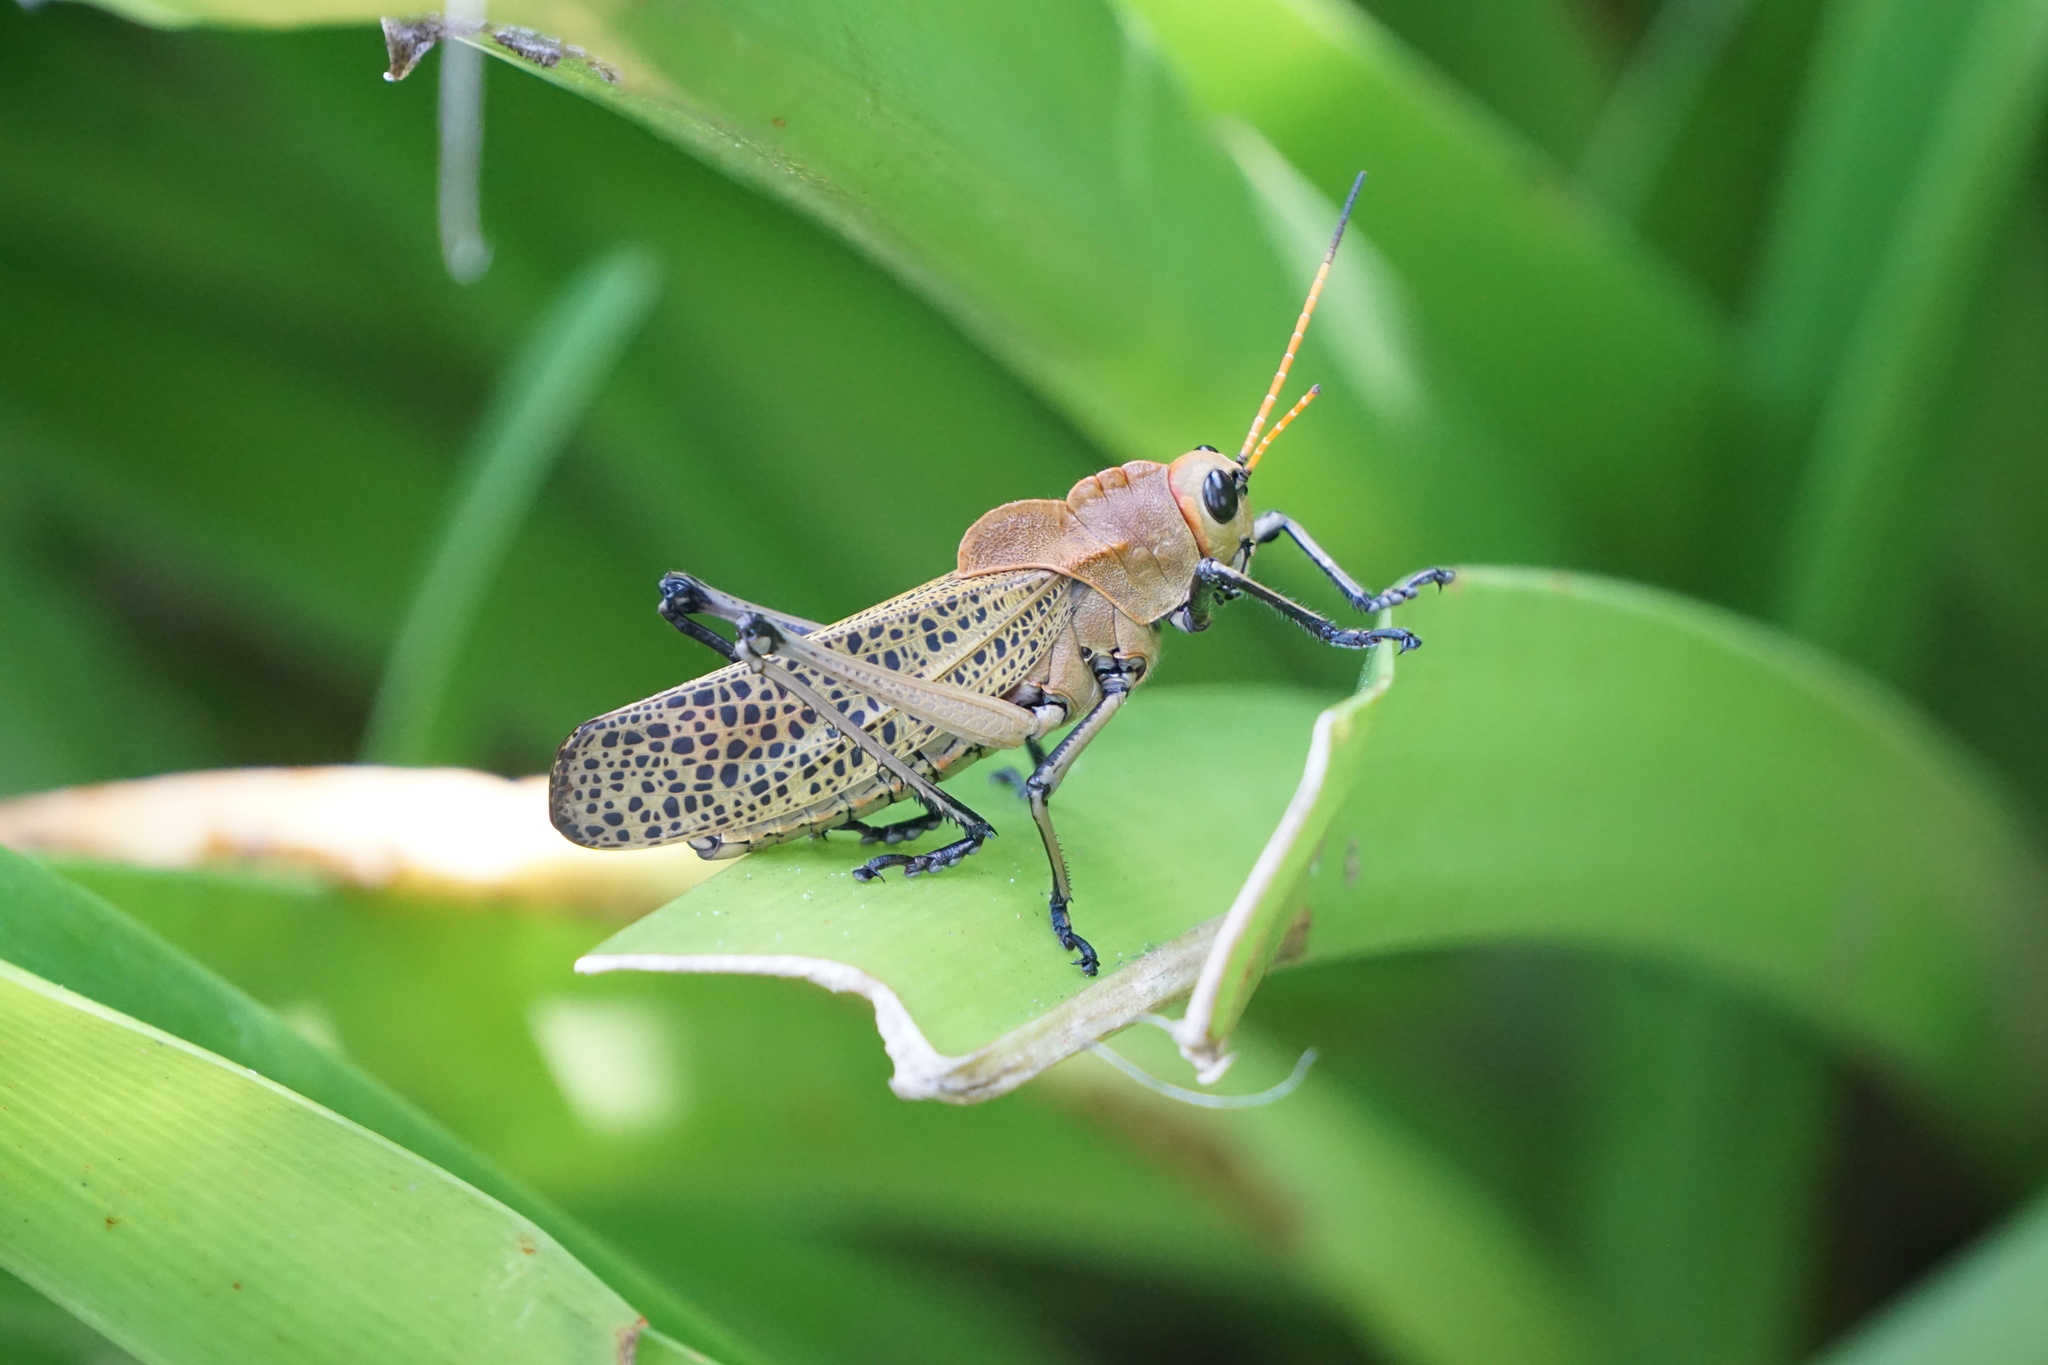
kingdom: Animalia
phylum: Arthropoda
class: Insecta
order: Orthoptera
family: Romaleidae
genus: Romalea
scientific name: Romalea
